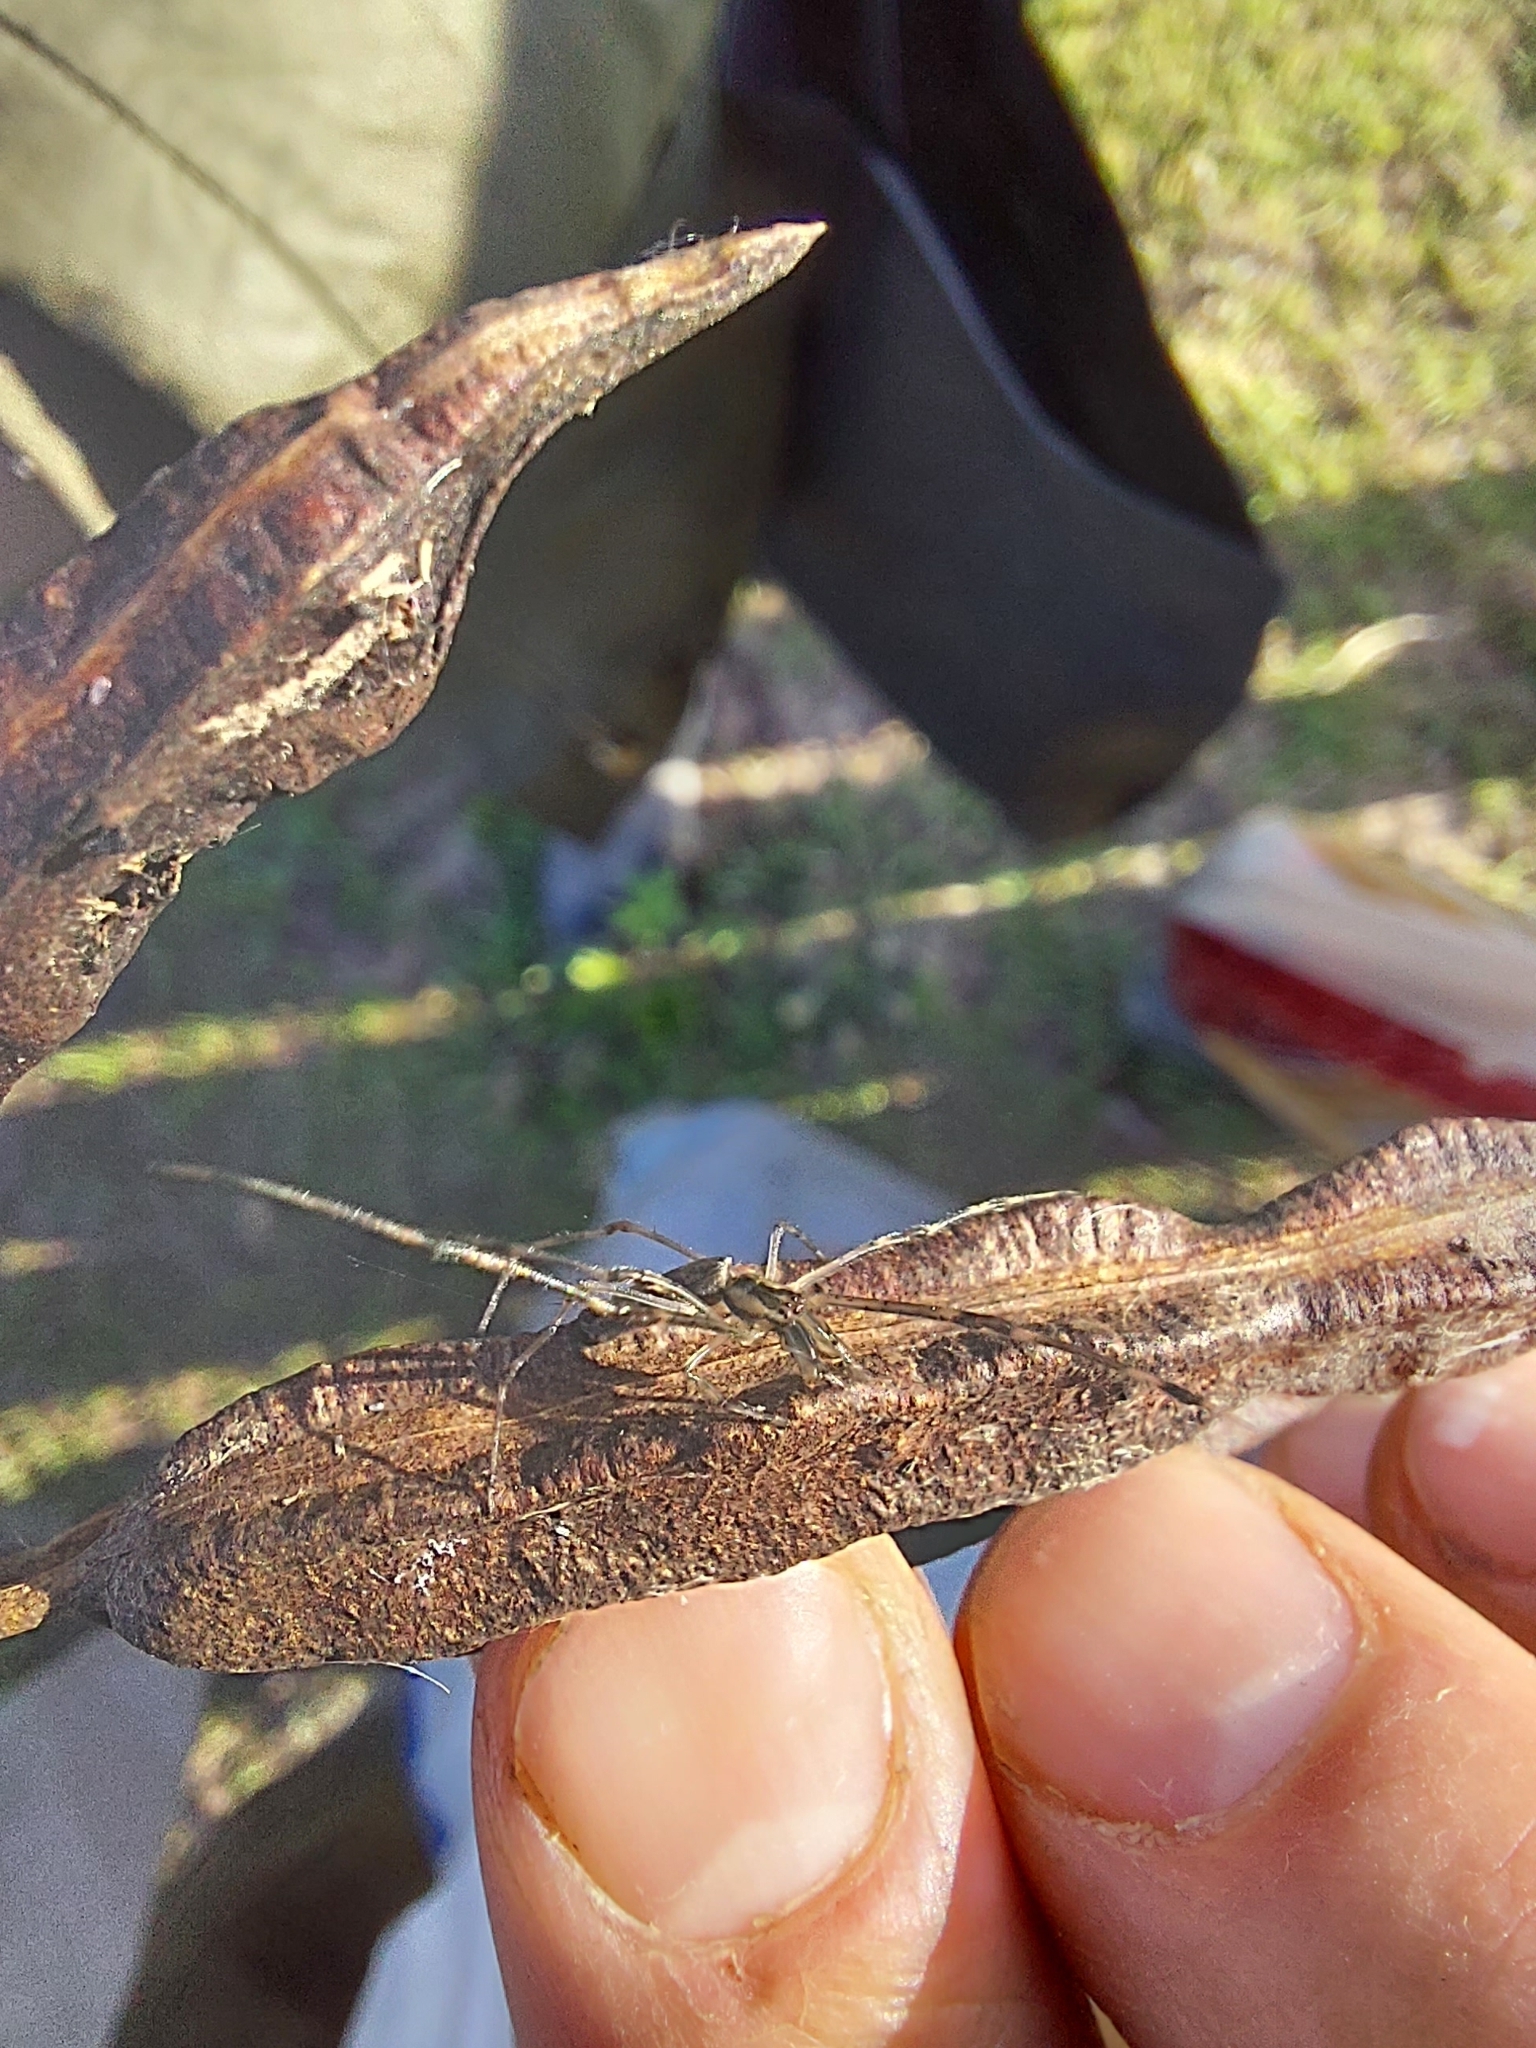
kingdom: Animalia
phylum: Arthropoda
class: Arachnida
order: Araneae
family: Tetragnathidae
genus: Tetragnatha
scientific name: Tetragnatha
